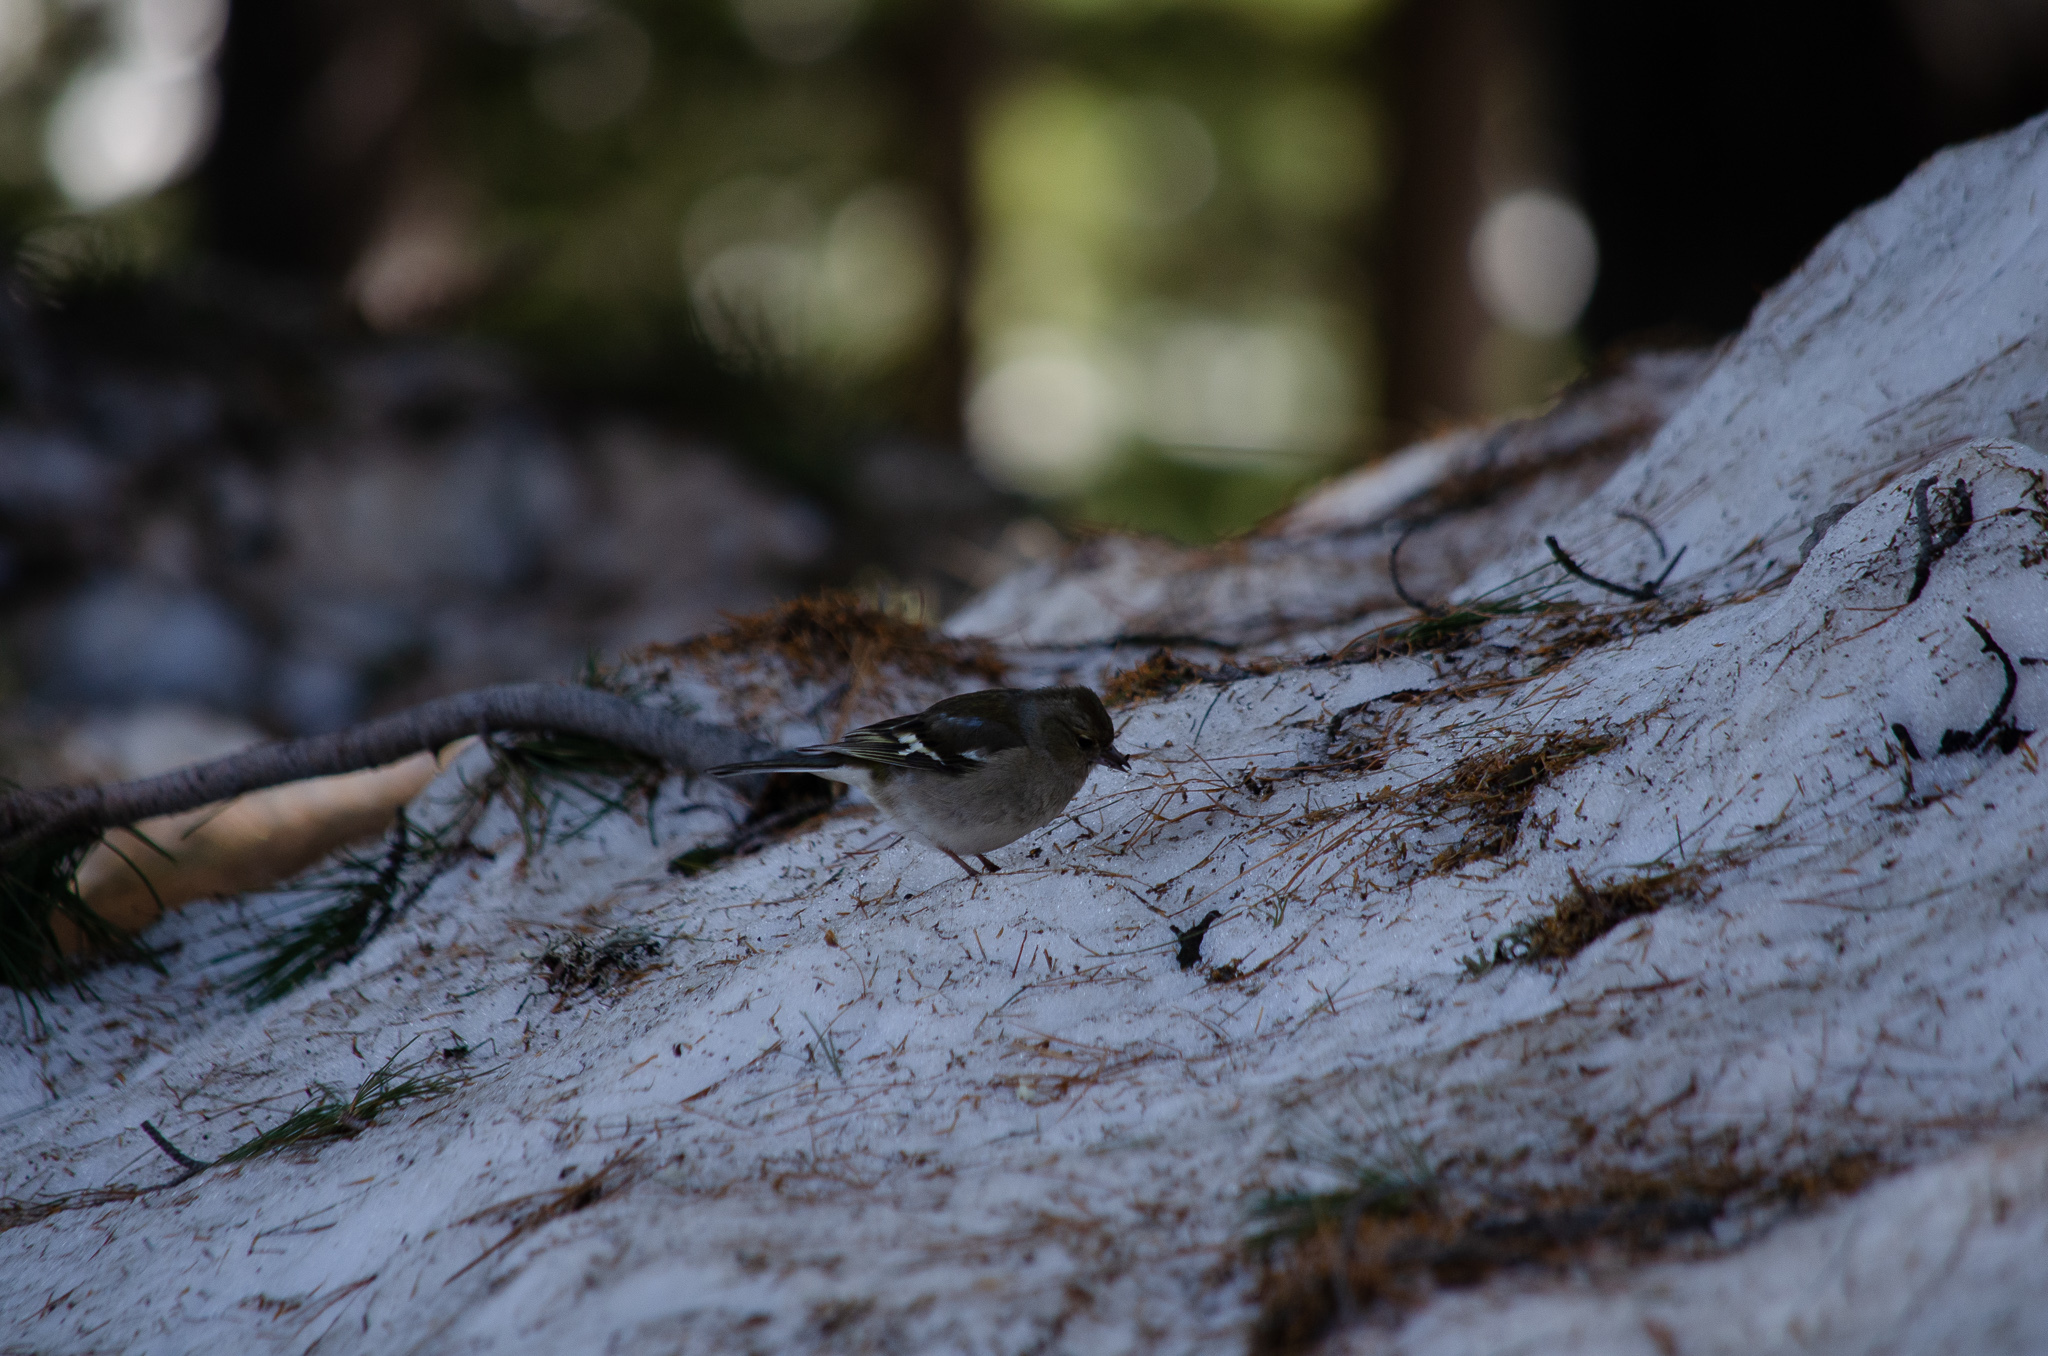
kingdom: Animalia
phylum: Chordata
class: Aves
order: Passeriformes
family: Fringillidae
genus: Fringilla
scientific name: Fringilla coelebs
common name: Common chaffinch
